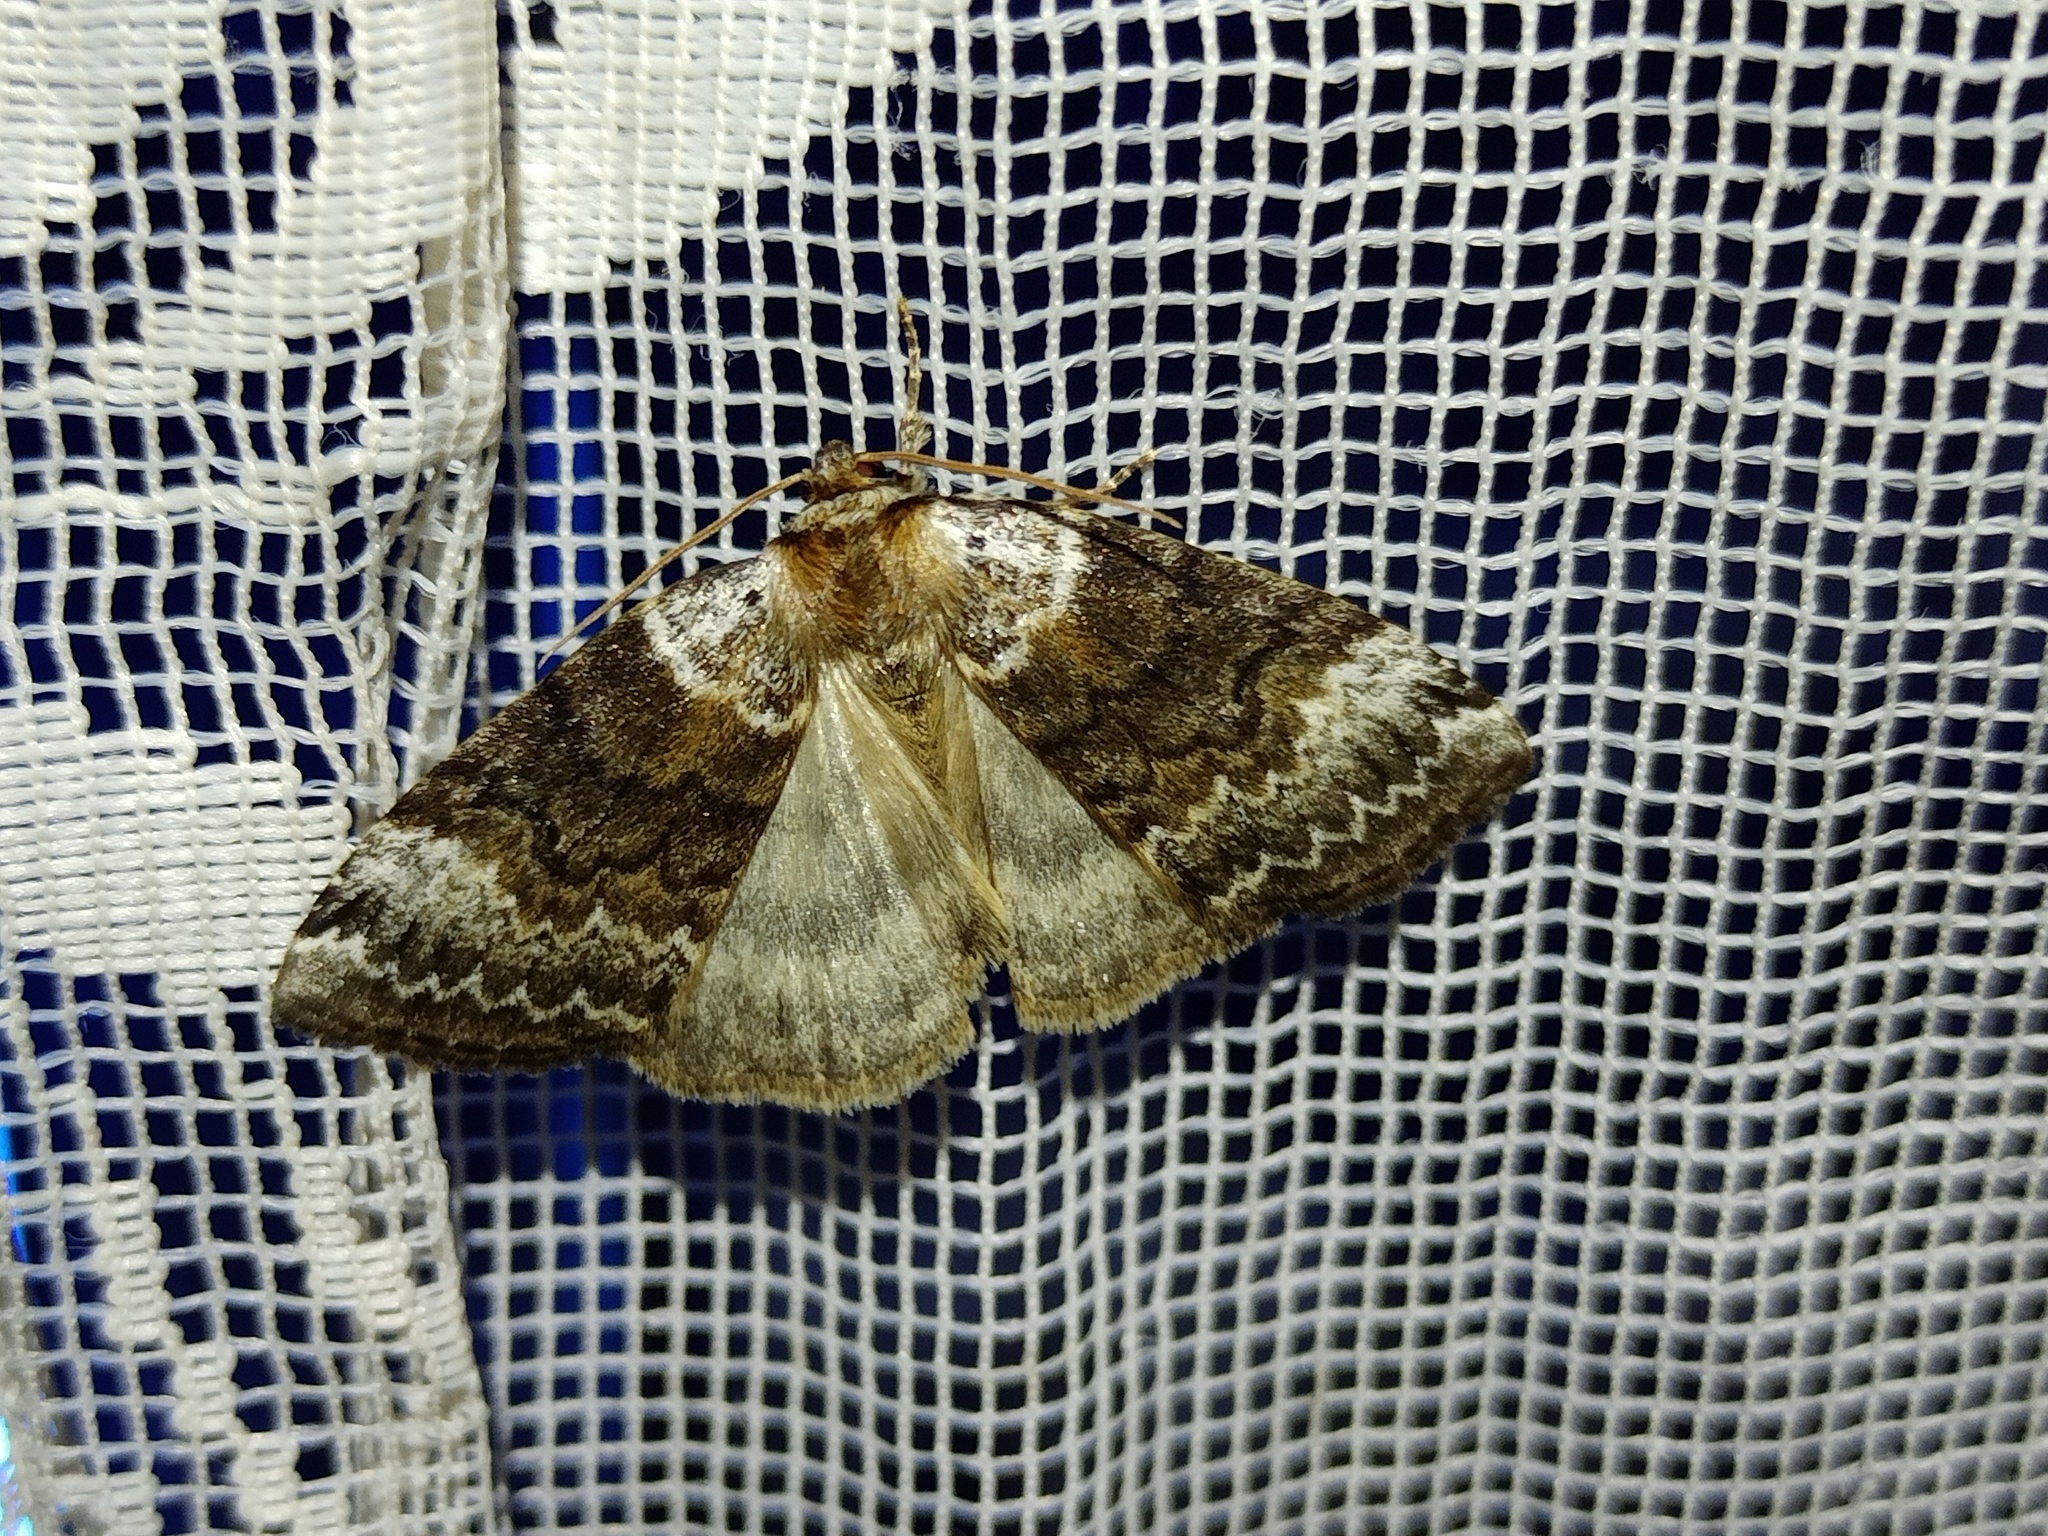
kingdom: Animalia
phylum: Arthropoda
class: Insecta
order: Lepidoptera
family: Drepanidae
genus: Tetheella
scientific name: Tetheella fluctuosa
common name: Satin lutestring
